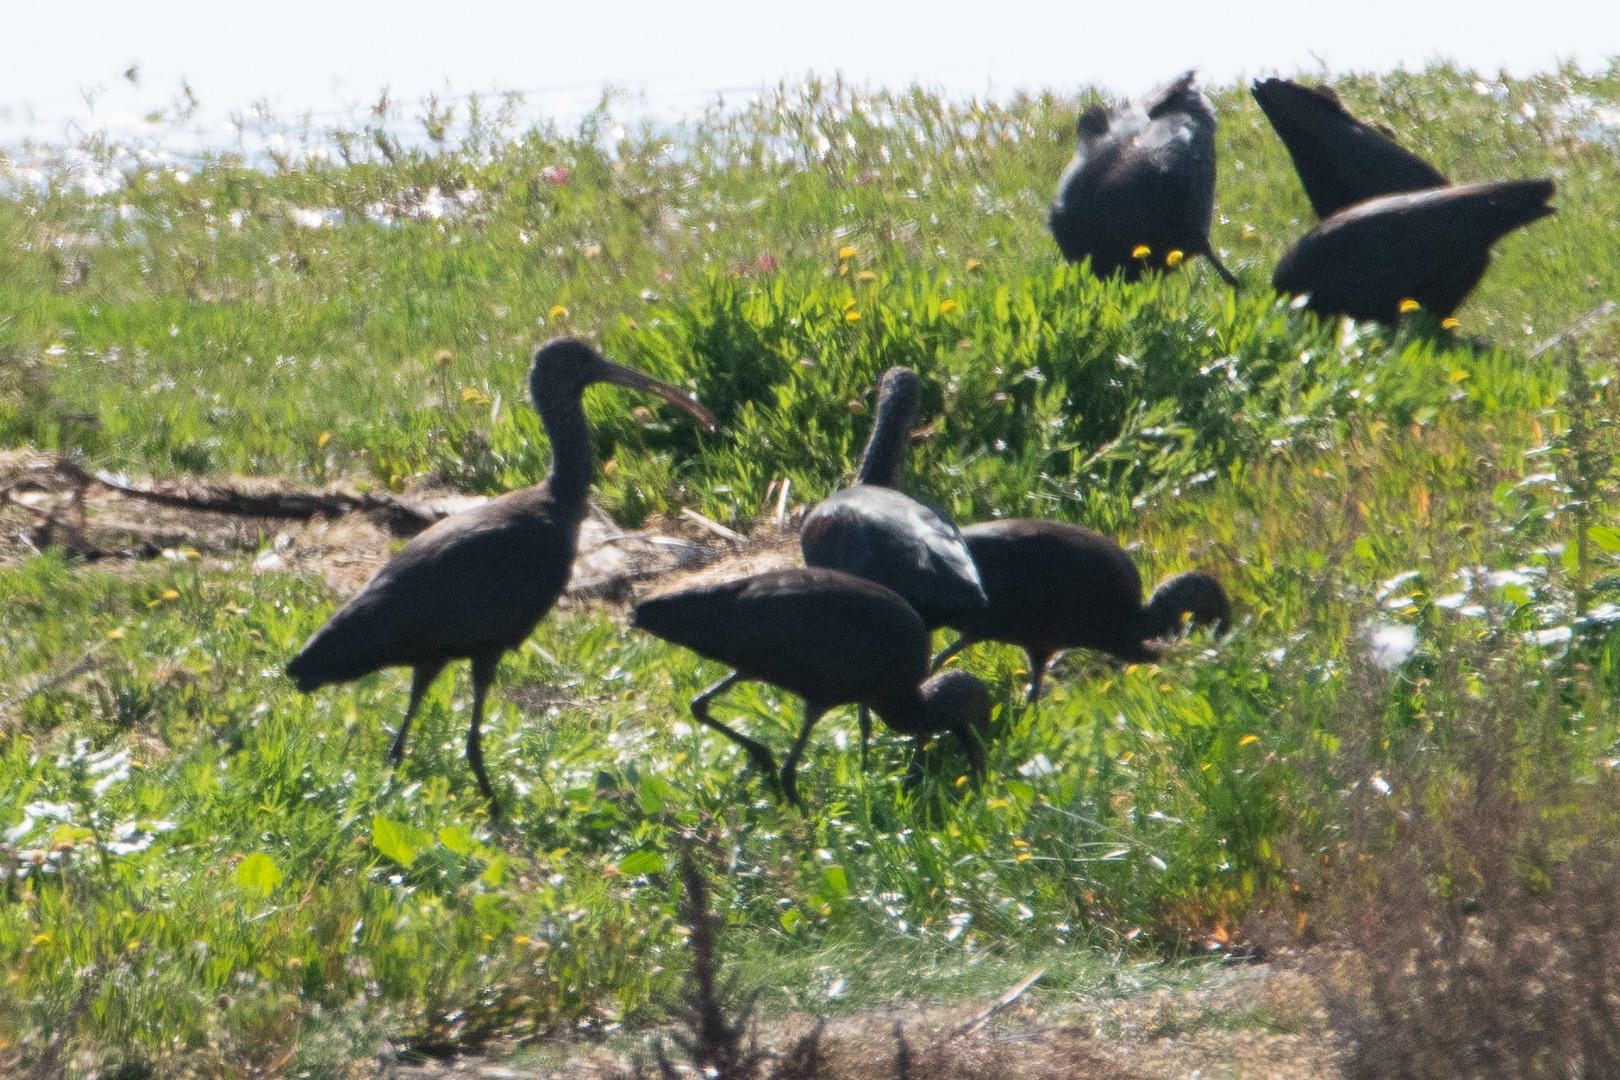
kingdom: Animalia
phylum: Chordata
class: Aves
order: Pelecaniformes
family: Threskiornithidae
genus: Plegadis
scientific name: Plegadis chihi
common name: White-faced ibis
